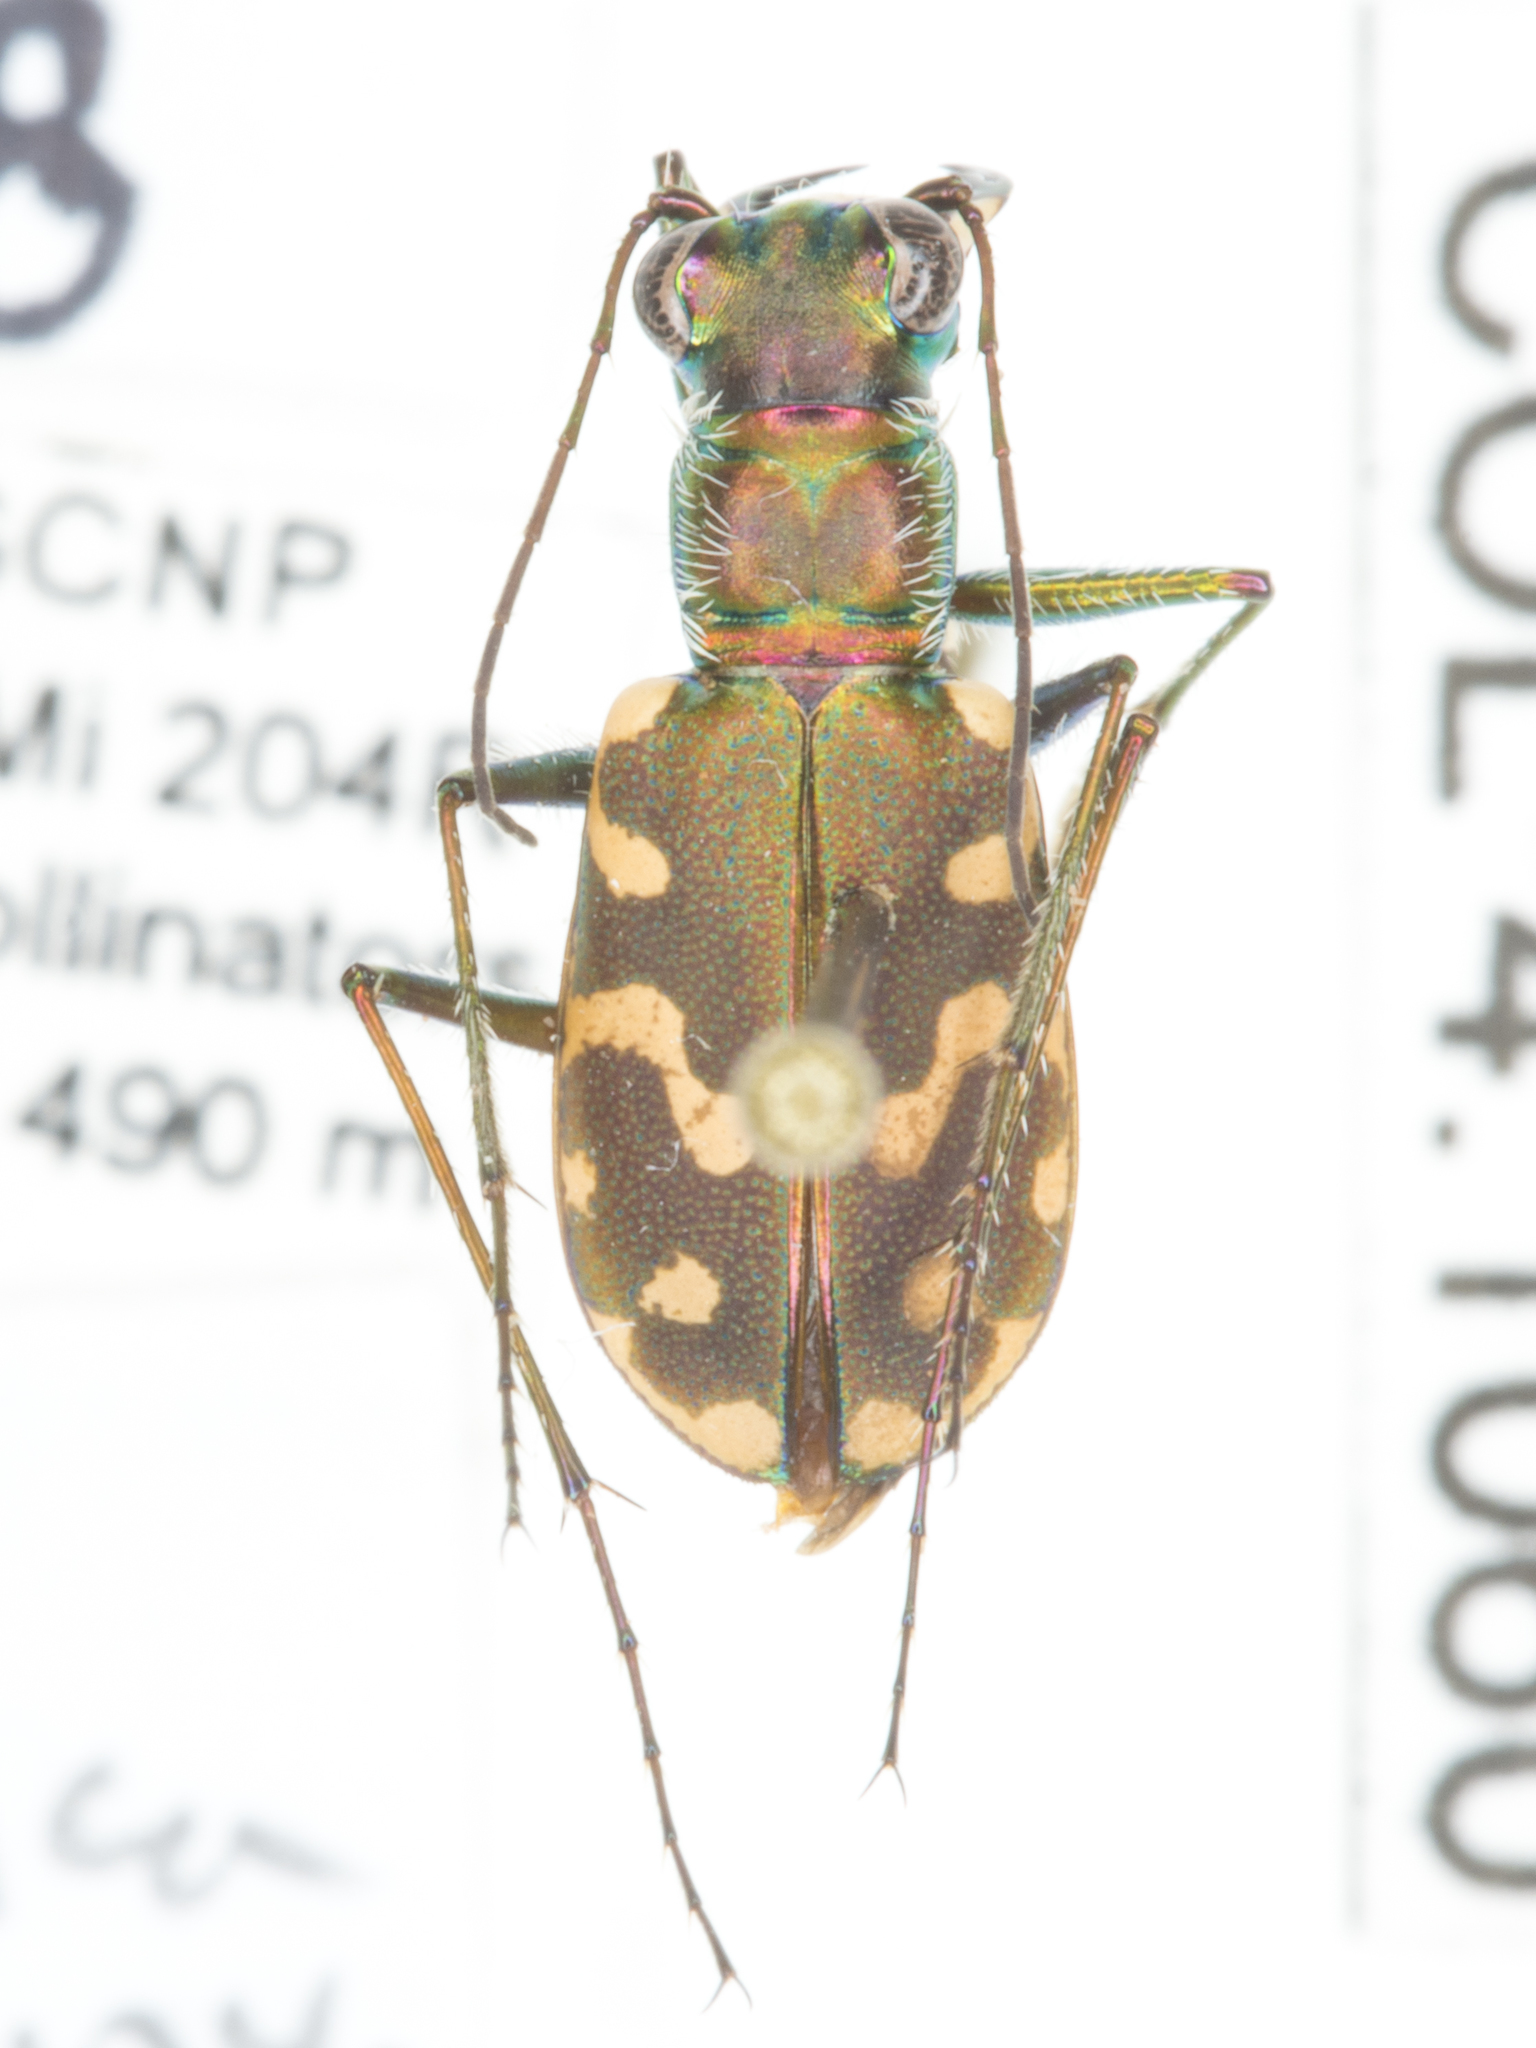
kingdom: Animalia
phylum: Arthropoda
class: Insecta
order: Coleoptera
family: Carabidae
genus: Cicindela
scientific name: Cicindela hemorrhagica
